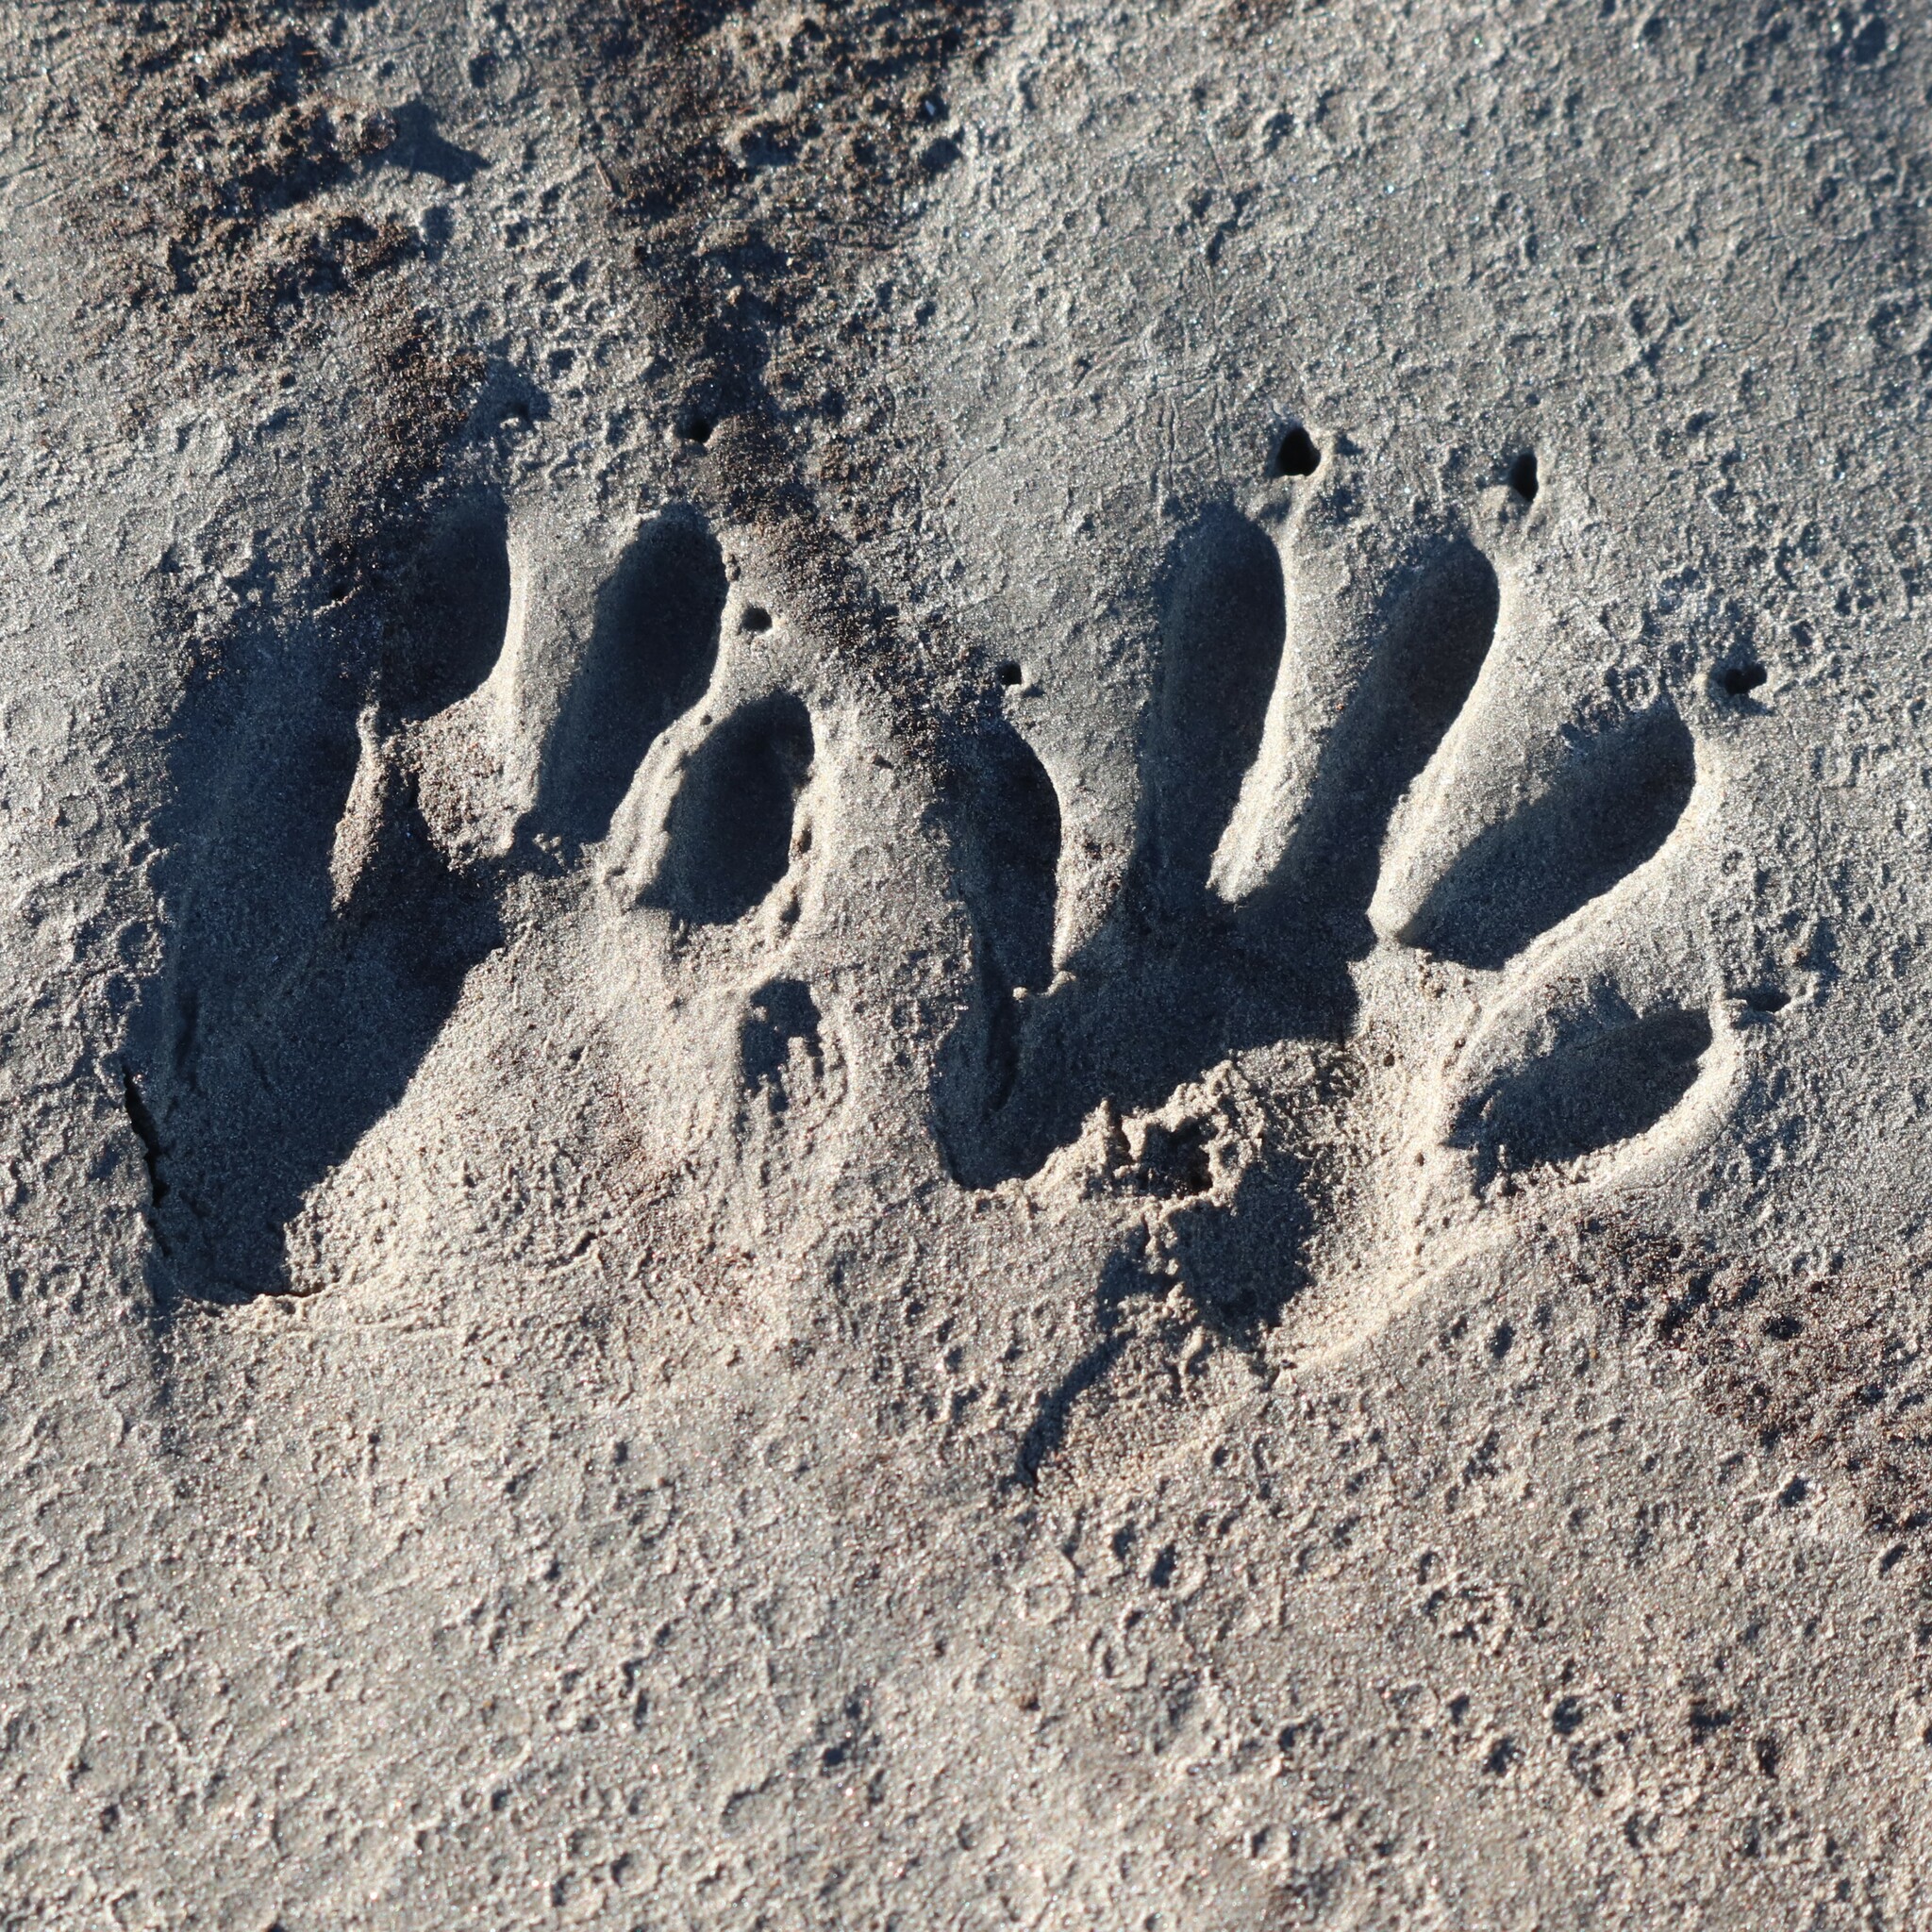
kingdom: Animalia
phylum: Chordata
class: Mammalia
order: Carnivora
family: Procyonidae
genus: Procyon
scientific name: Procyon lotor
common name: Raccoon
